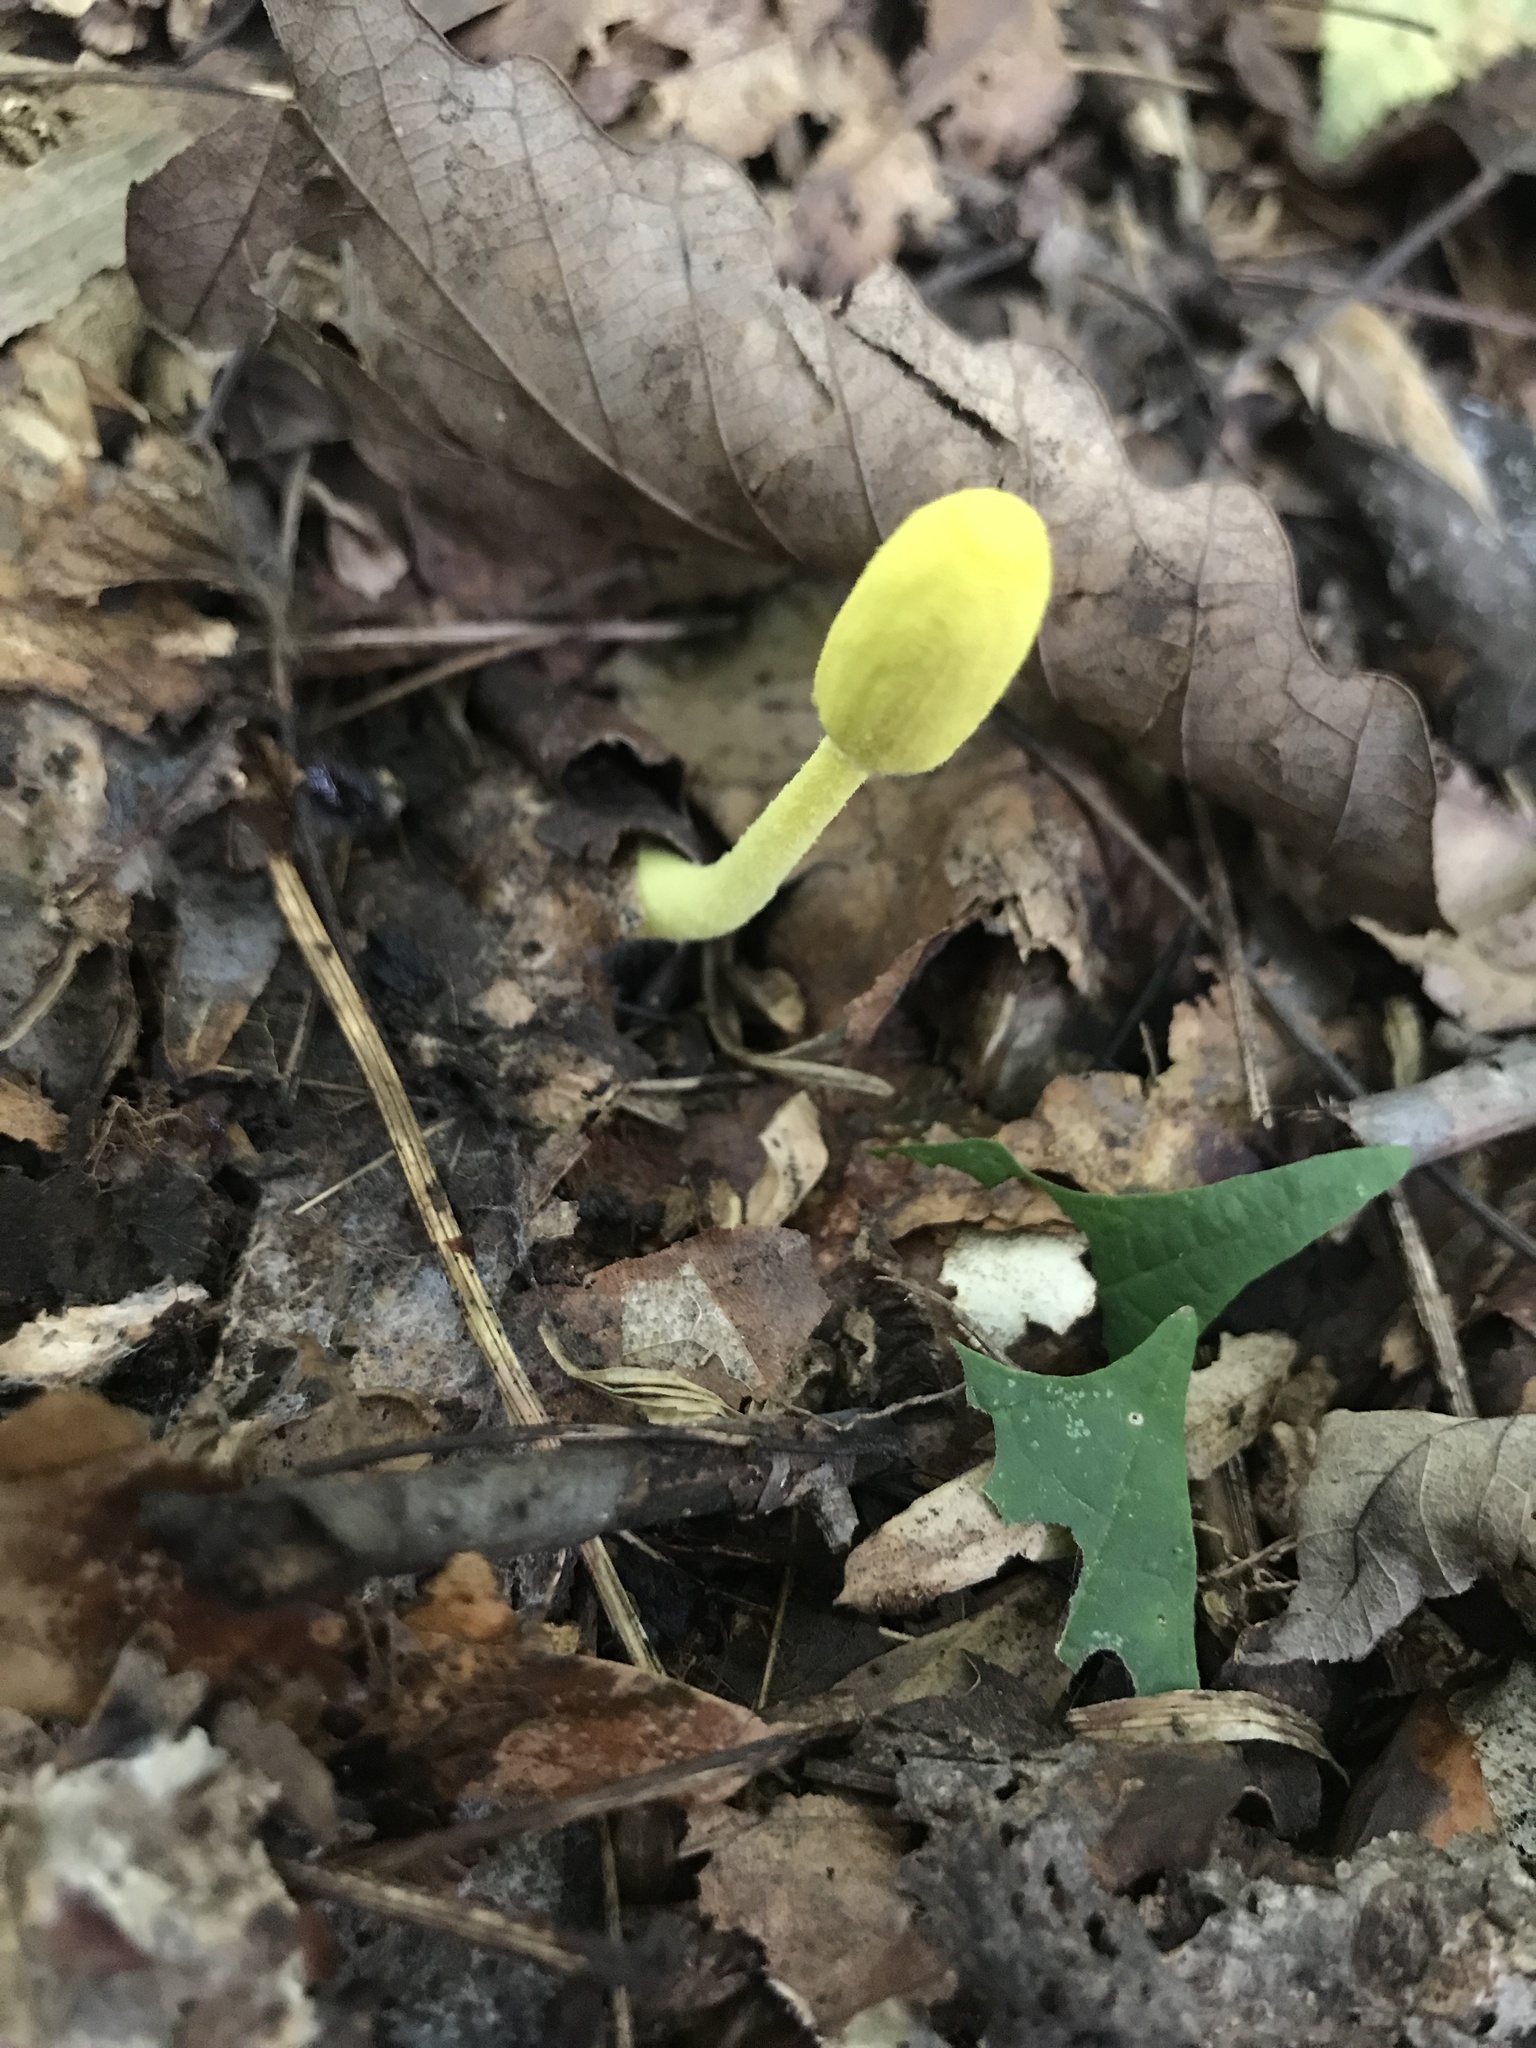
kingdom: Fungi
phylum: Basidiomycota
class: Agaricomycetes
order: Agaricales
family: Agaricaceae
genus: Leucocoprinus
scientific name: Leucocoprinus fragilissimus
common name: Fragile dapperling
